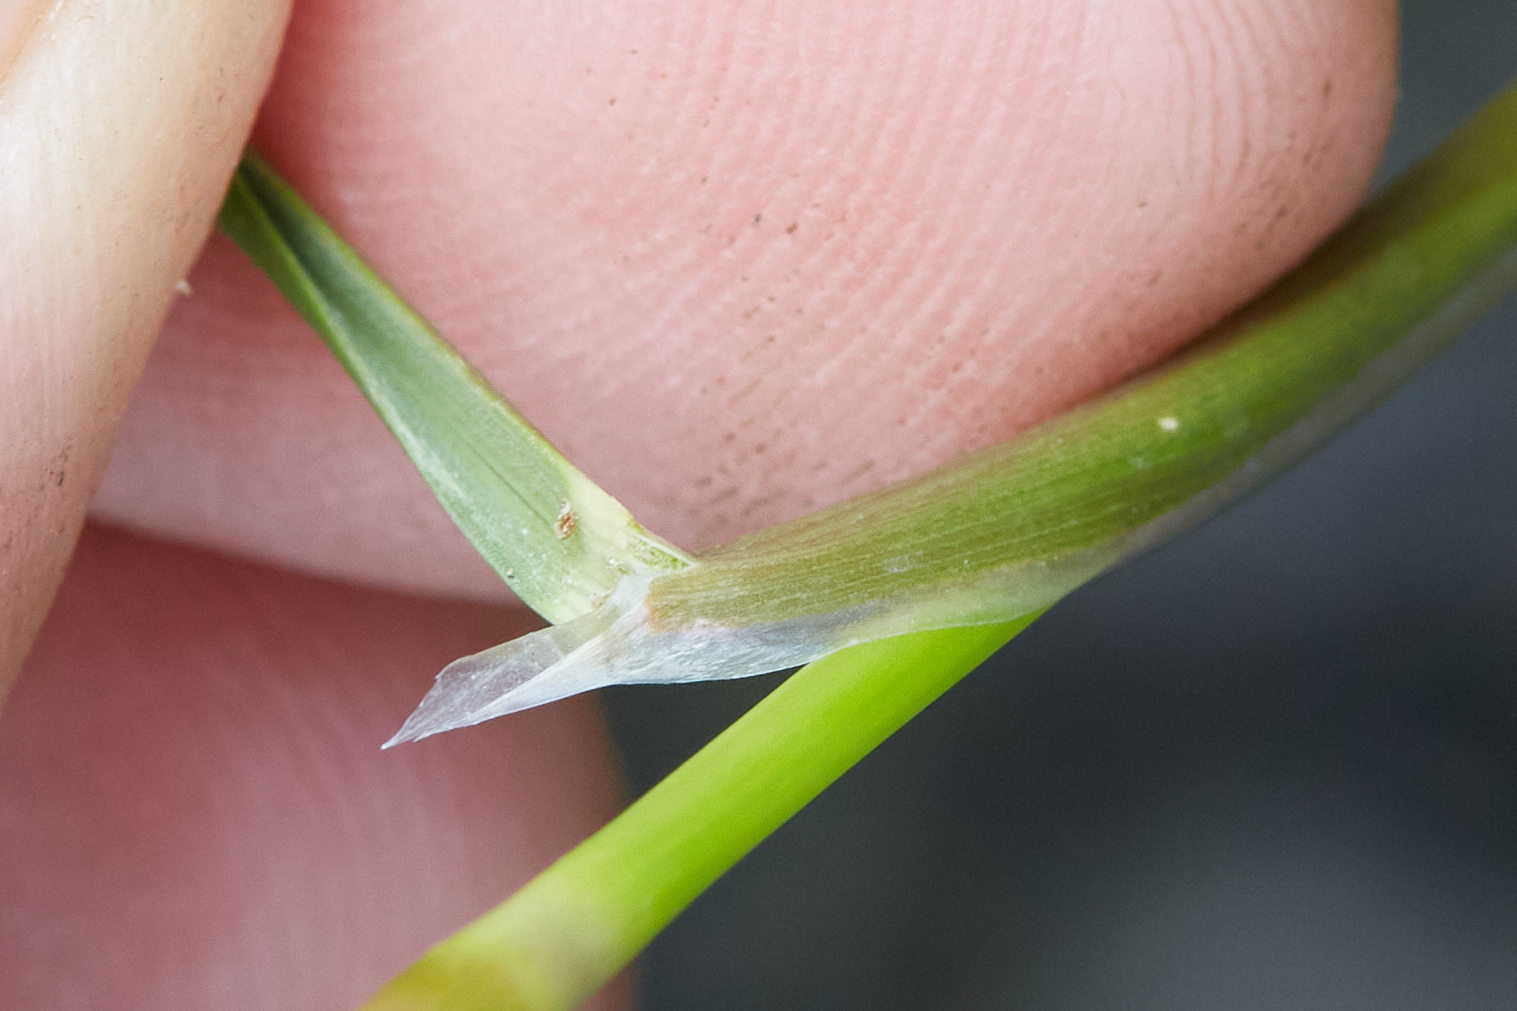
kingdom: Plantae
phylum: Tracheophyta
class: Liliopsida
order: Poales
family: Poaceae
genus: Deschampsia
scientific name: Deschampsia cespitosa
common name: Tufted hair-grass
